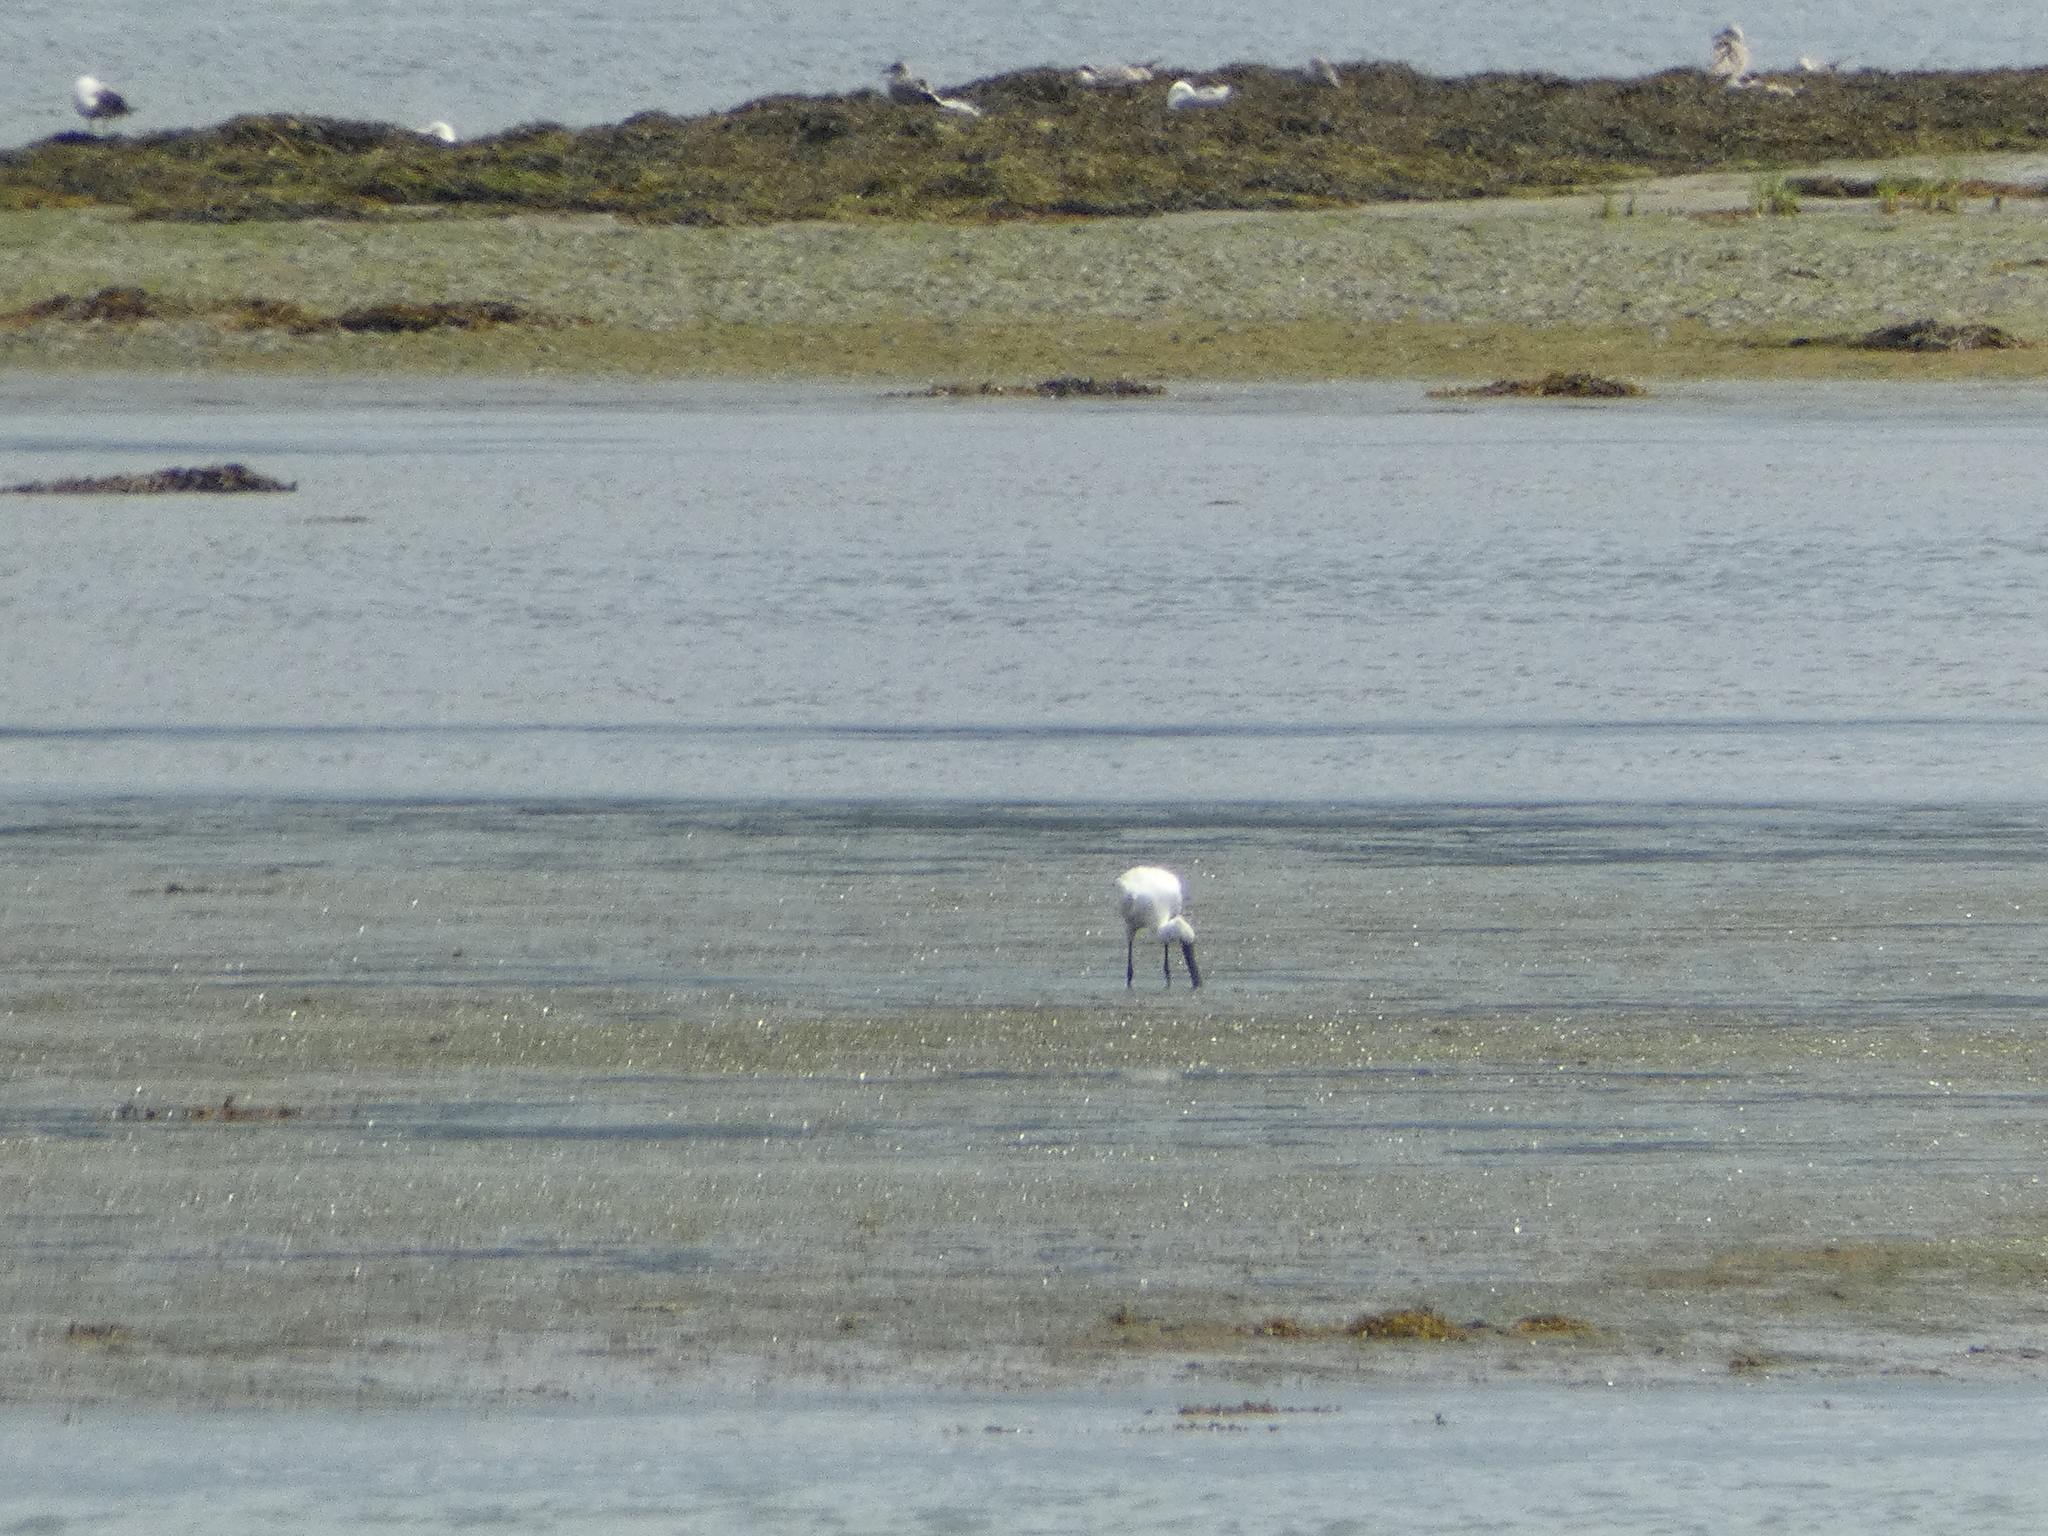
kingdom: Animalia
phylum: Chordata
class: Aves
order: Pelecaniformes
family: Threskiornithidae
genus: Platalea
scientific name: Platalea leucorodia
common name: Eurasian spoonbill
